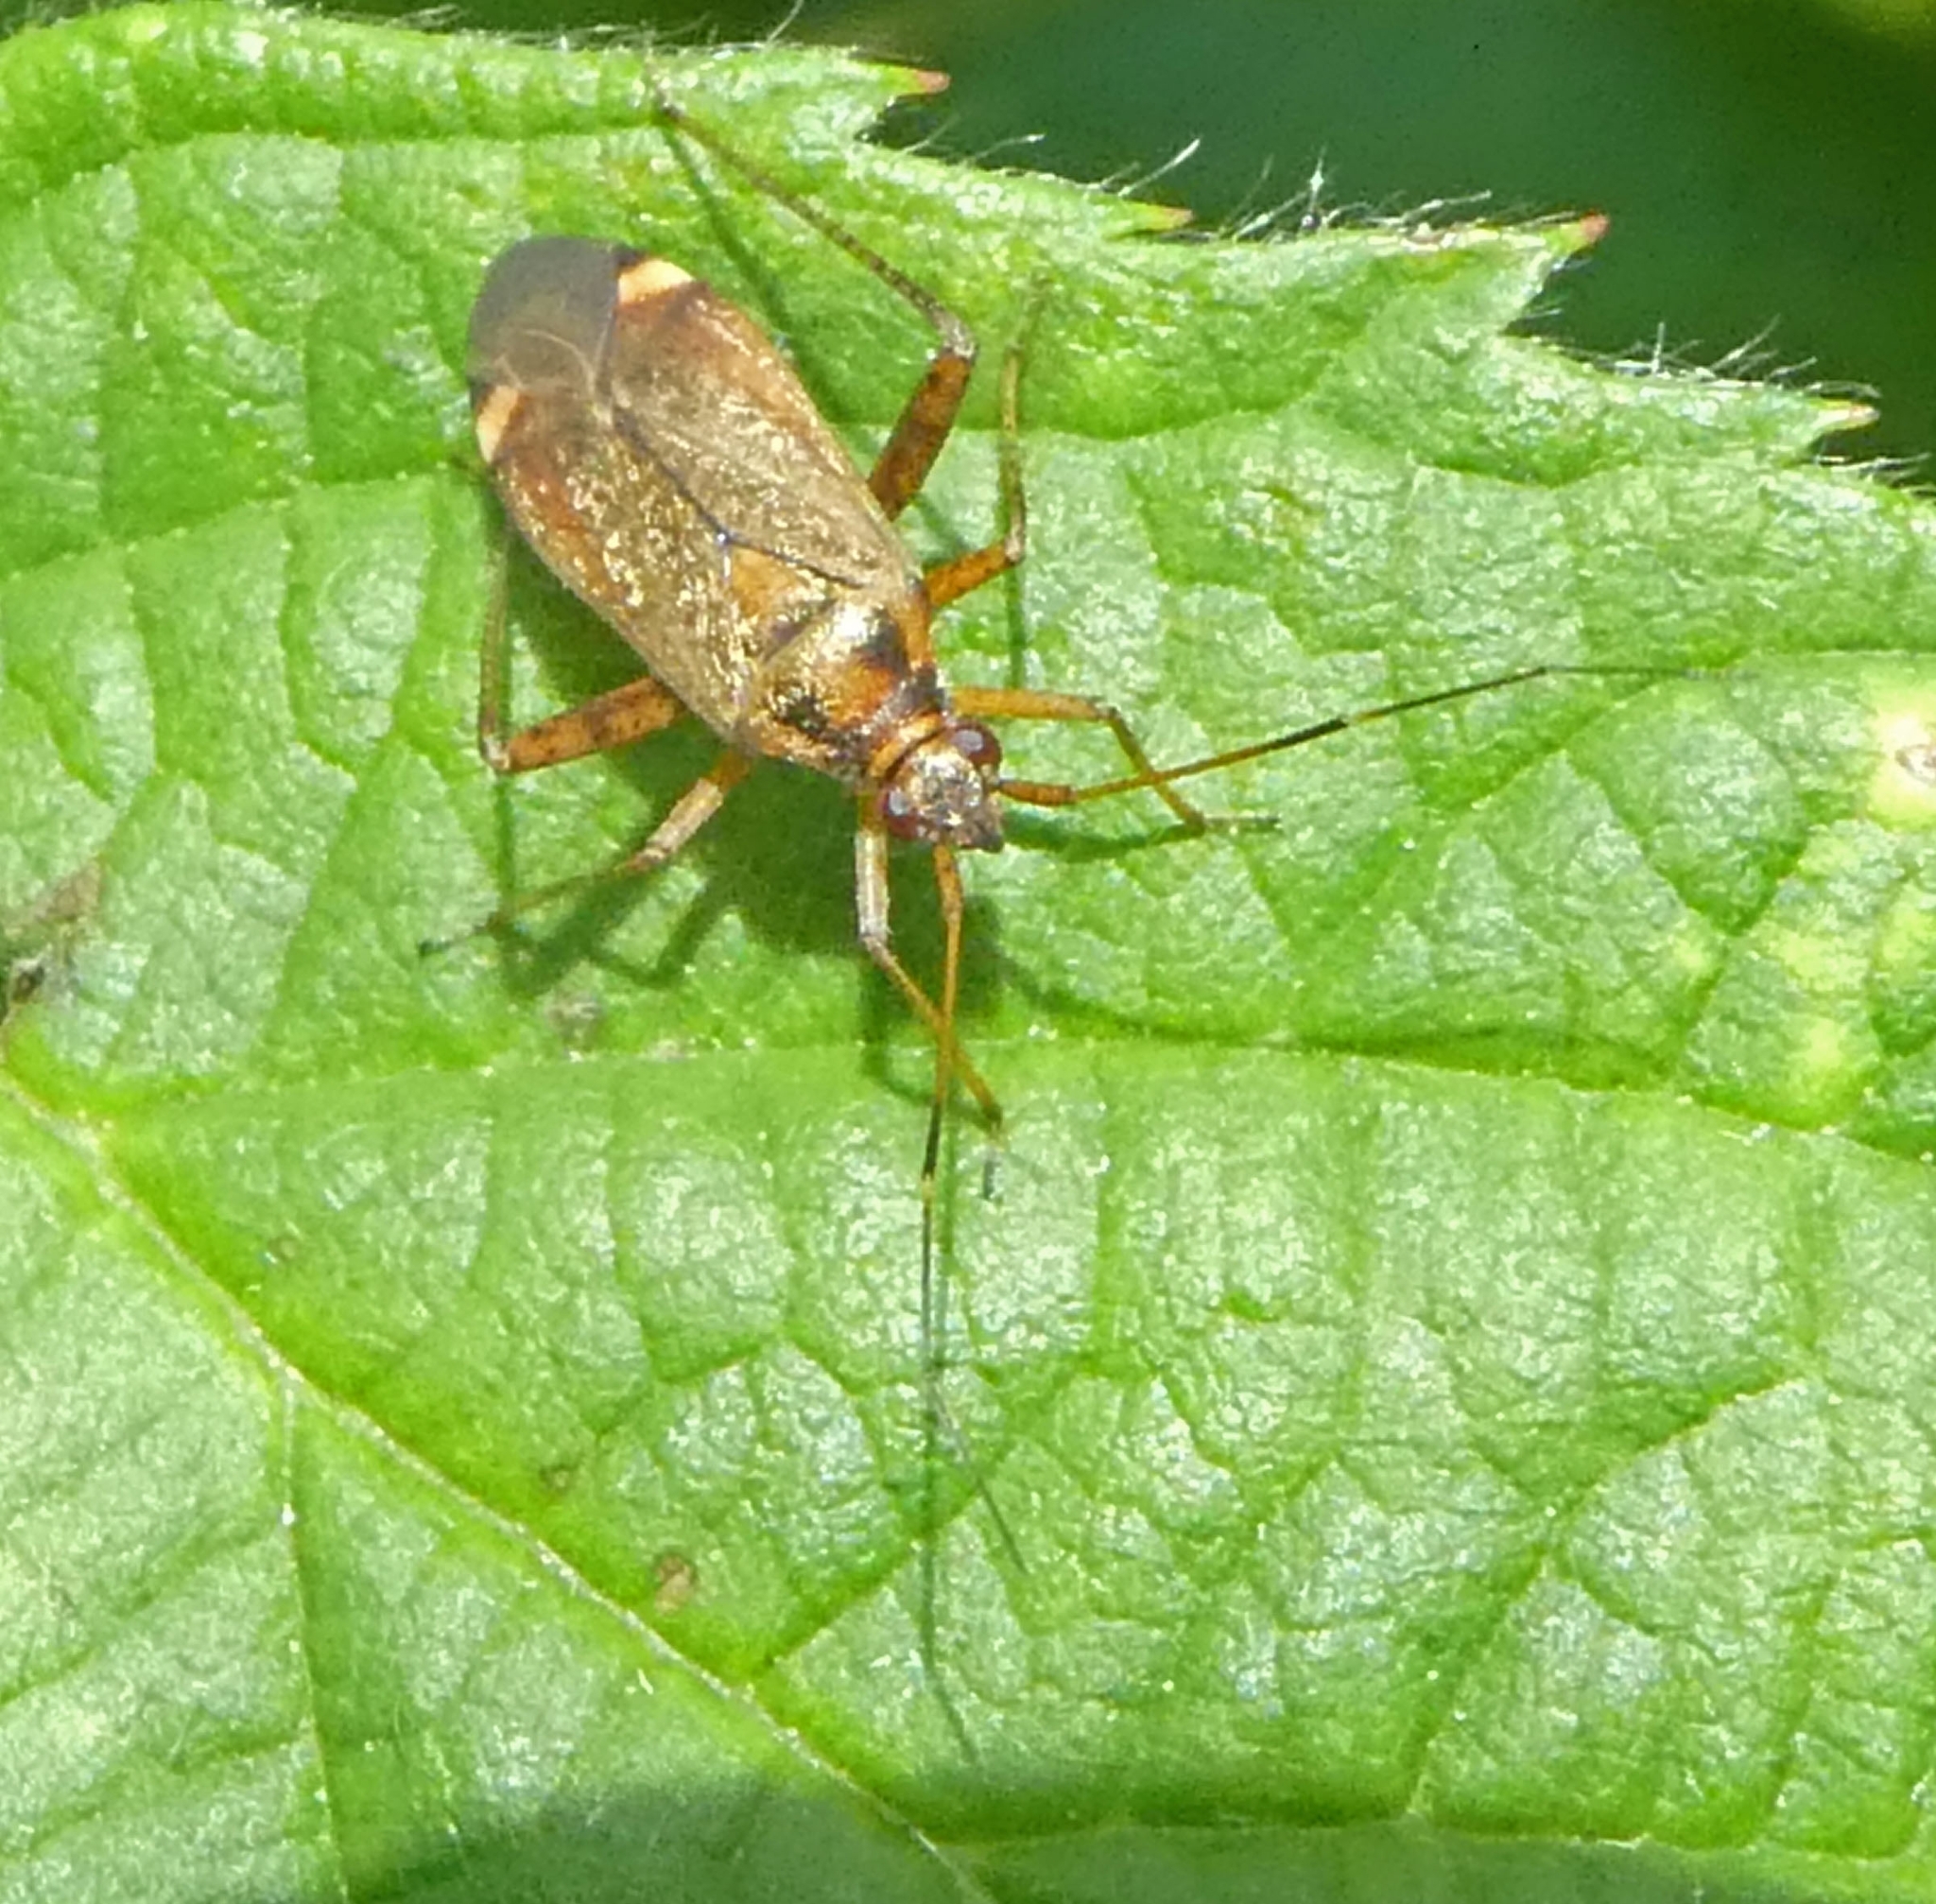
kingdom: Animalia
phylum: Arthropoda
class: Insecta
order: Hemiptera
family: Miridae
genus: Closterotomus
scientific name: Closterotomus fulvomaculatus
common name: Spotted plant bug
